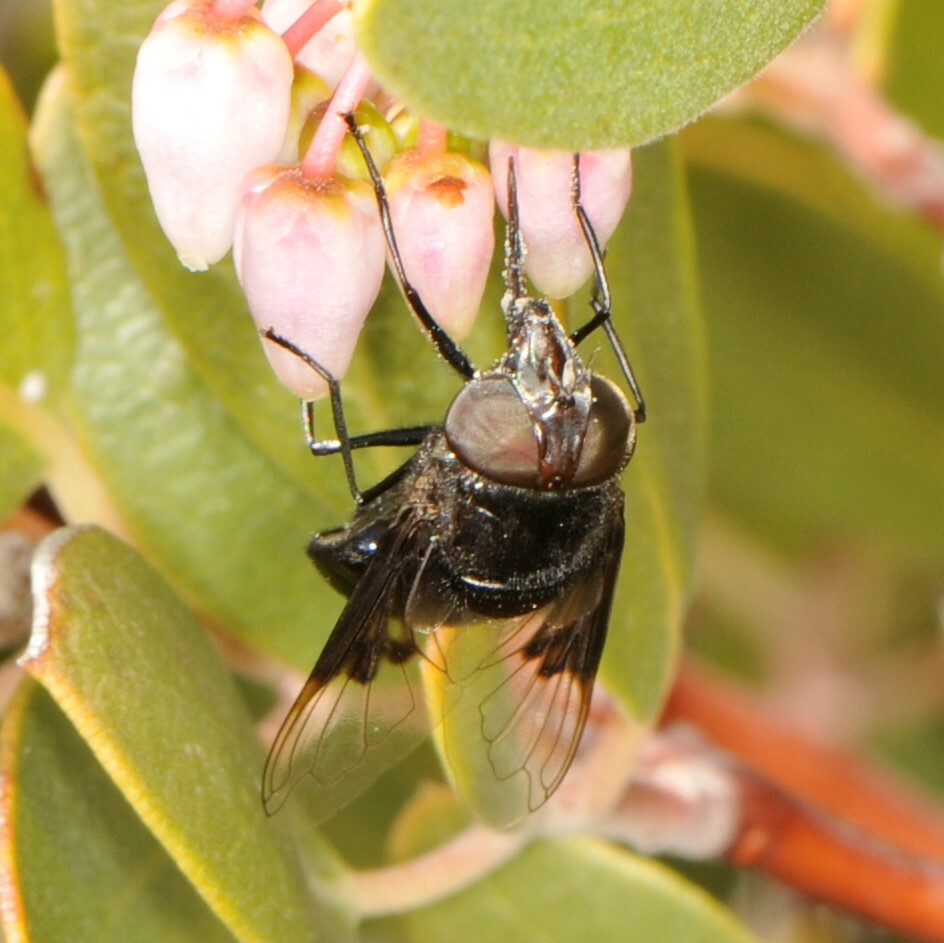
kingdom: Animalia
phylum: Arthropoda
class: Insecta
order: Diptera
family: Syrphidae
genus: Copestylum
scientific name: Copestylum
